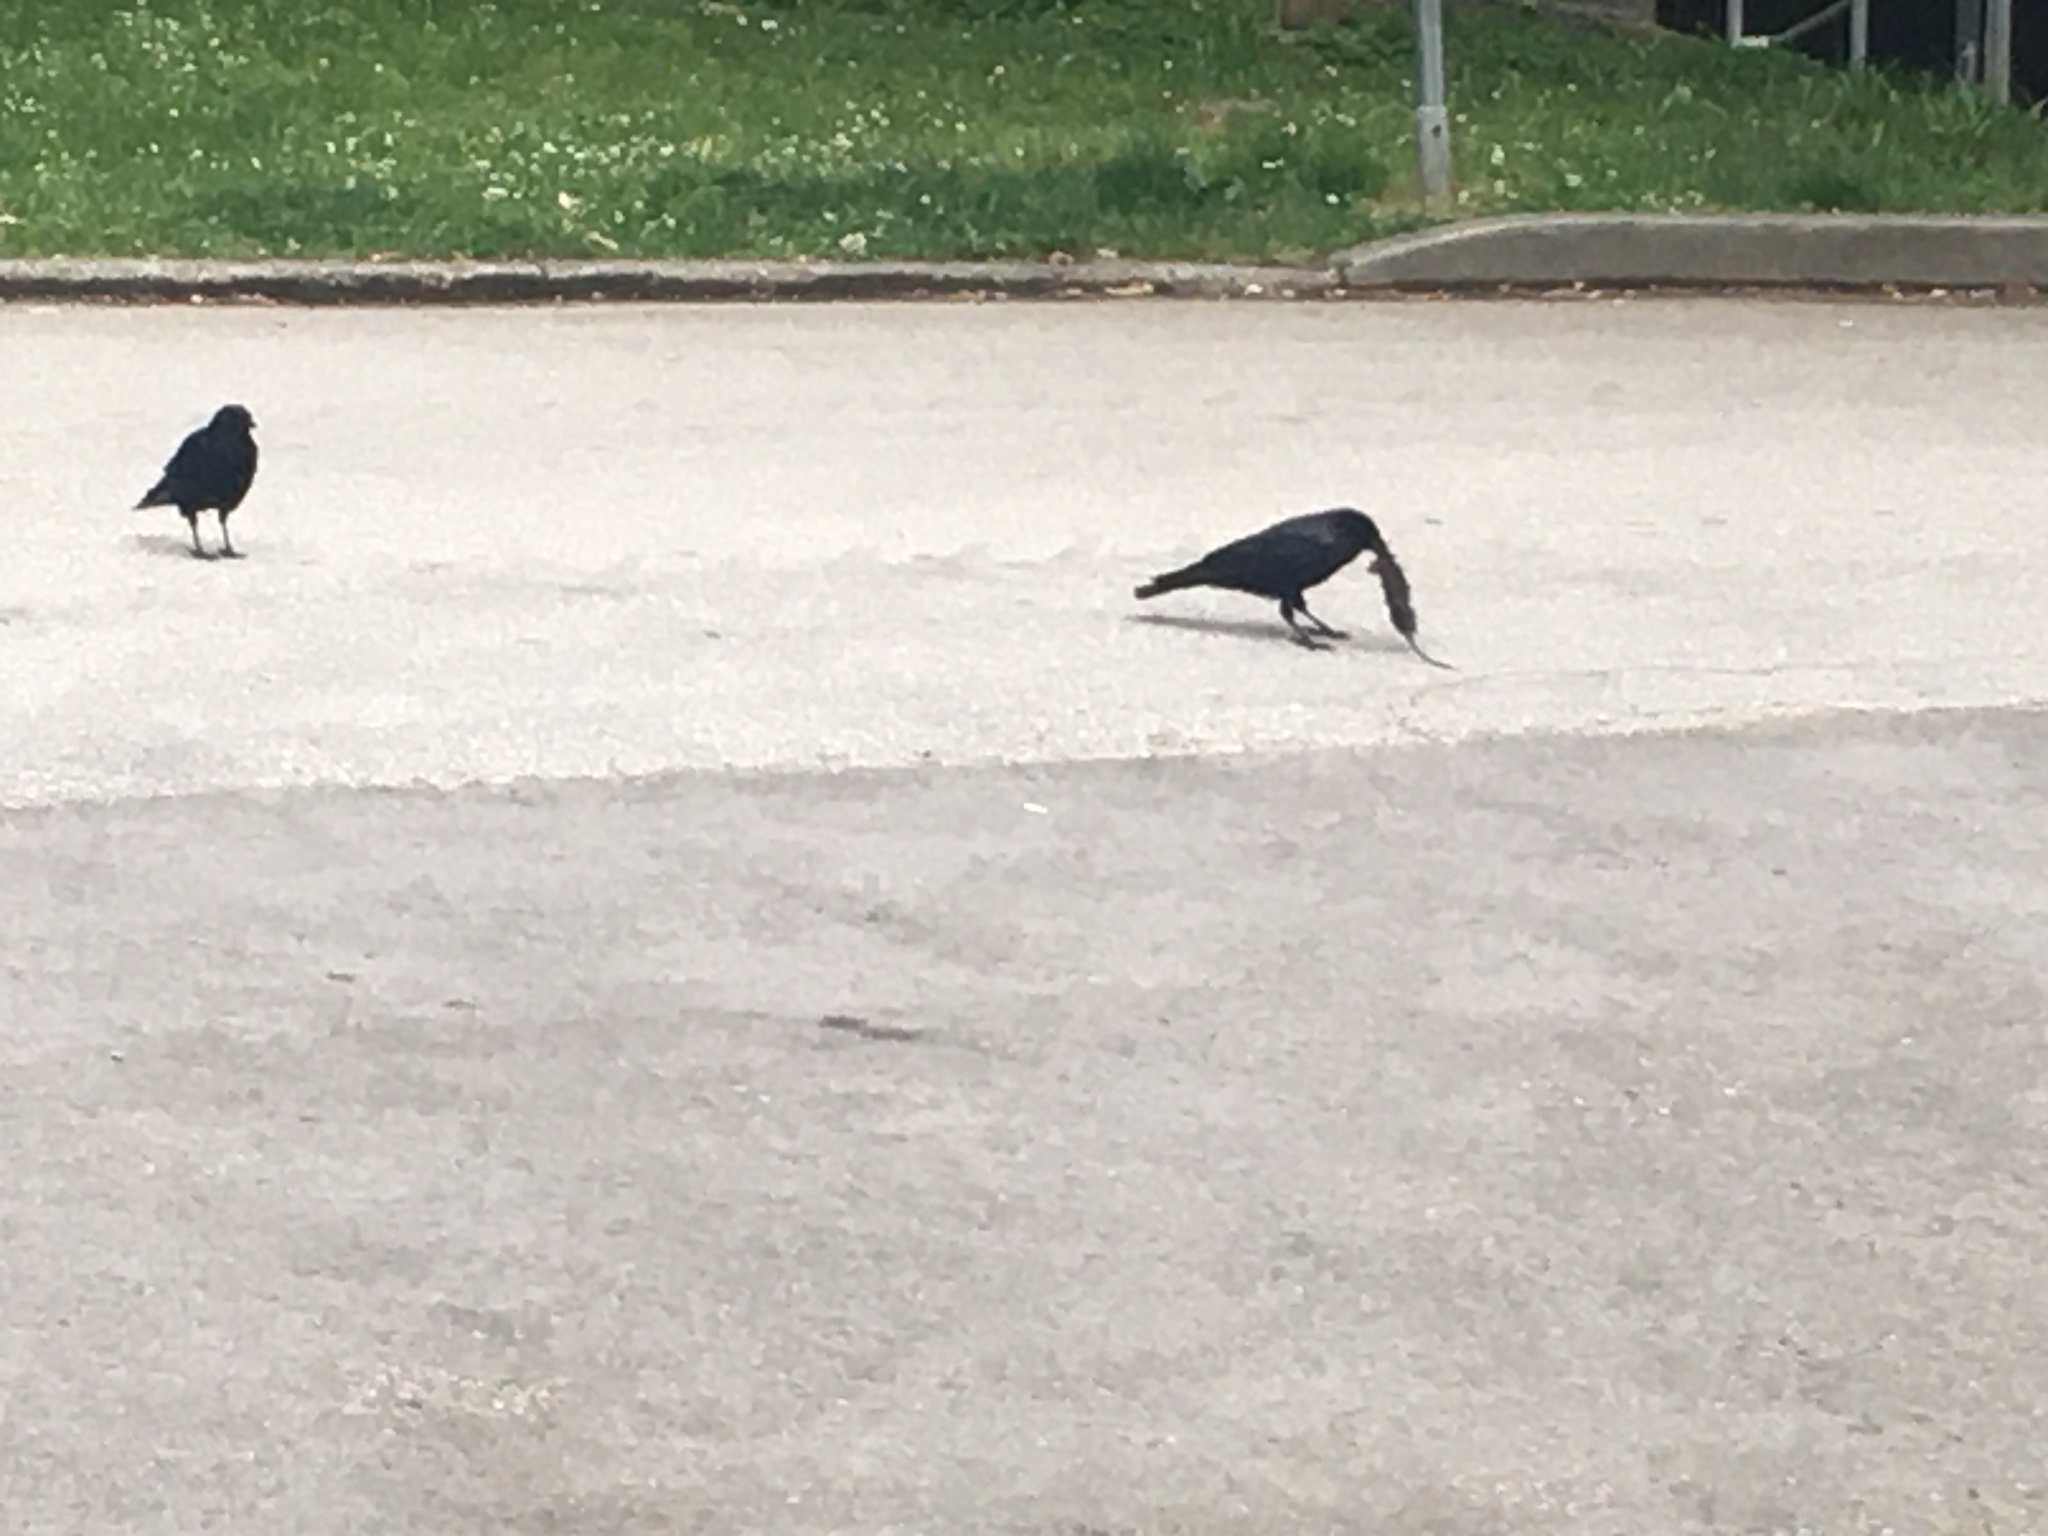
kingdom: Animalia
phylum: Chordata
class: Aves
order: Passeriformes
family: Corvidae
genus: Corvus
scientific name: Corvus brachyrhynchos
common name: American crow
